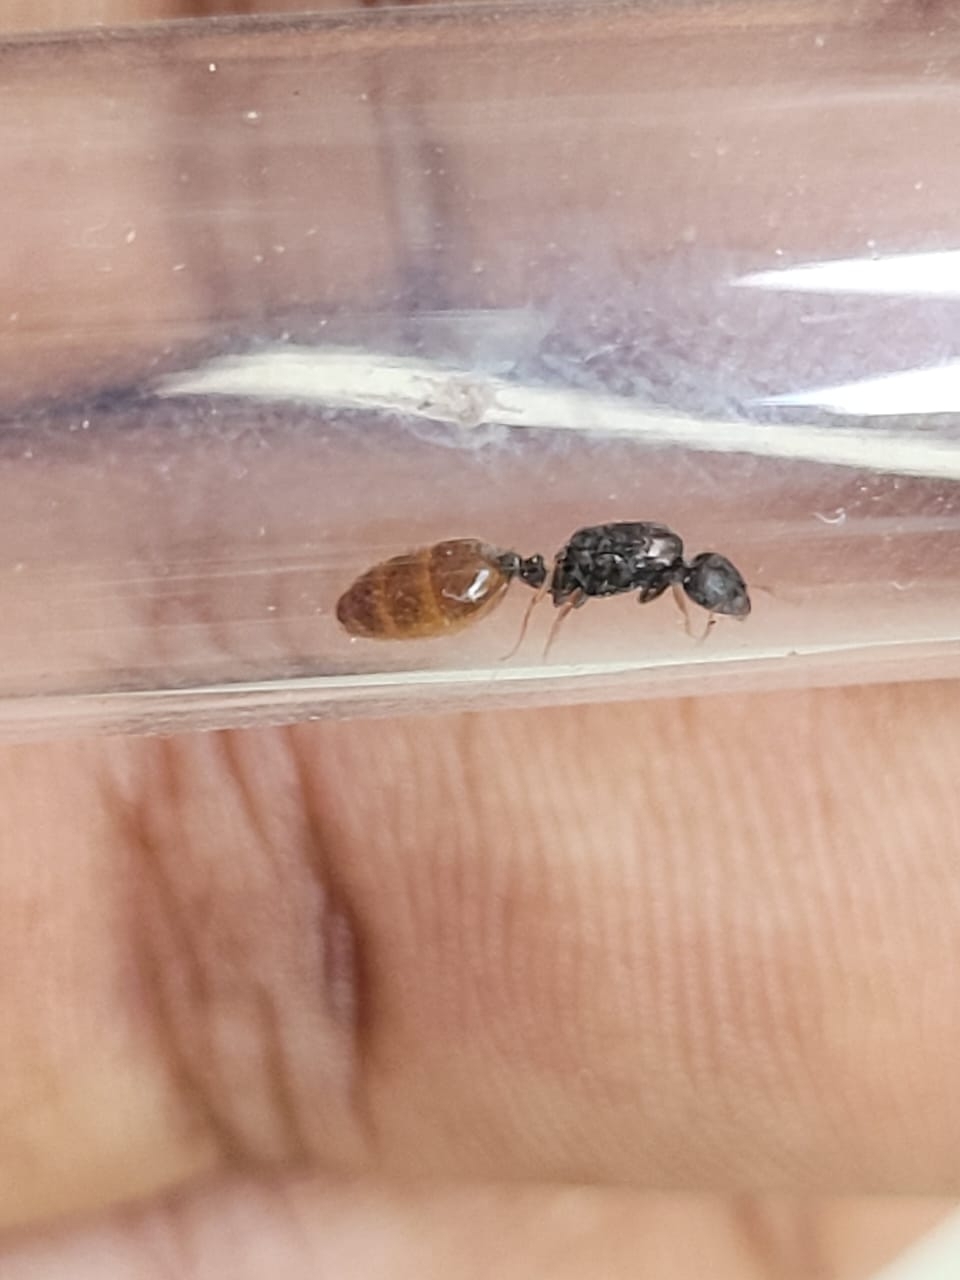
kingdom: Animalia
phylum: Arthropoda
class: Insecta
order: Hymenoptera
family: Formicidae
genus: Carebara
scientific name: Carebara
